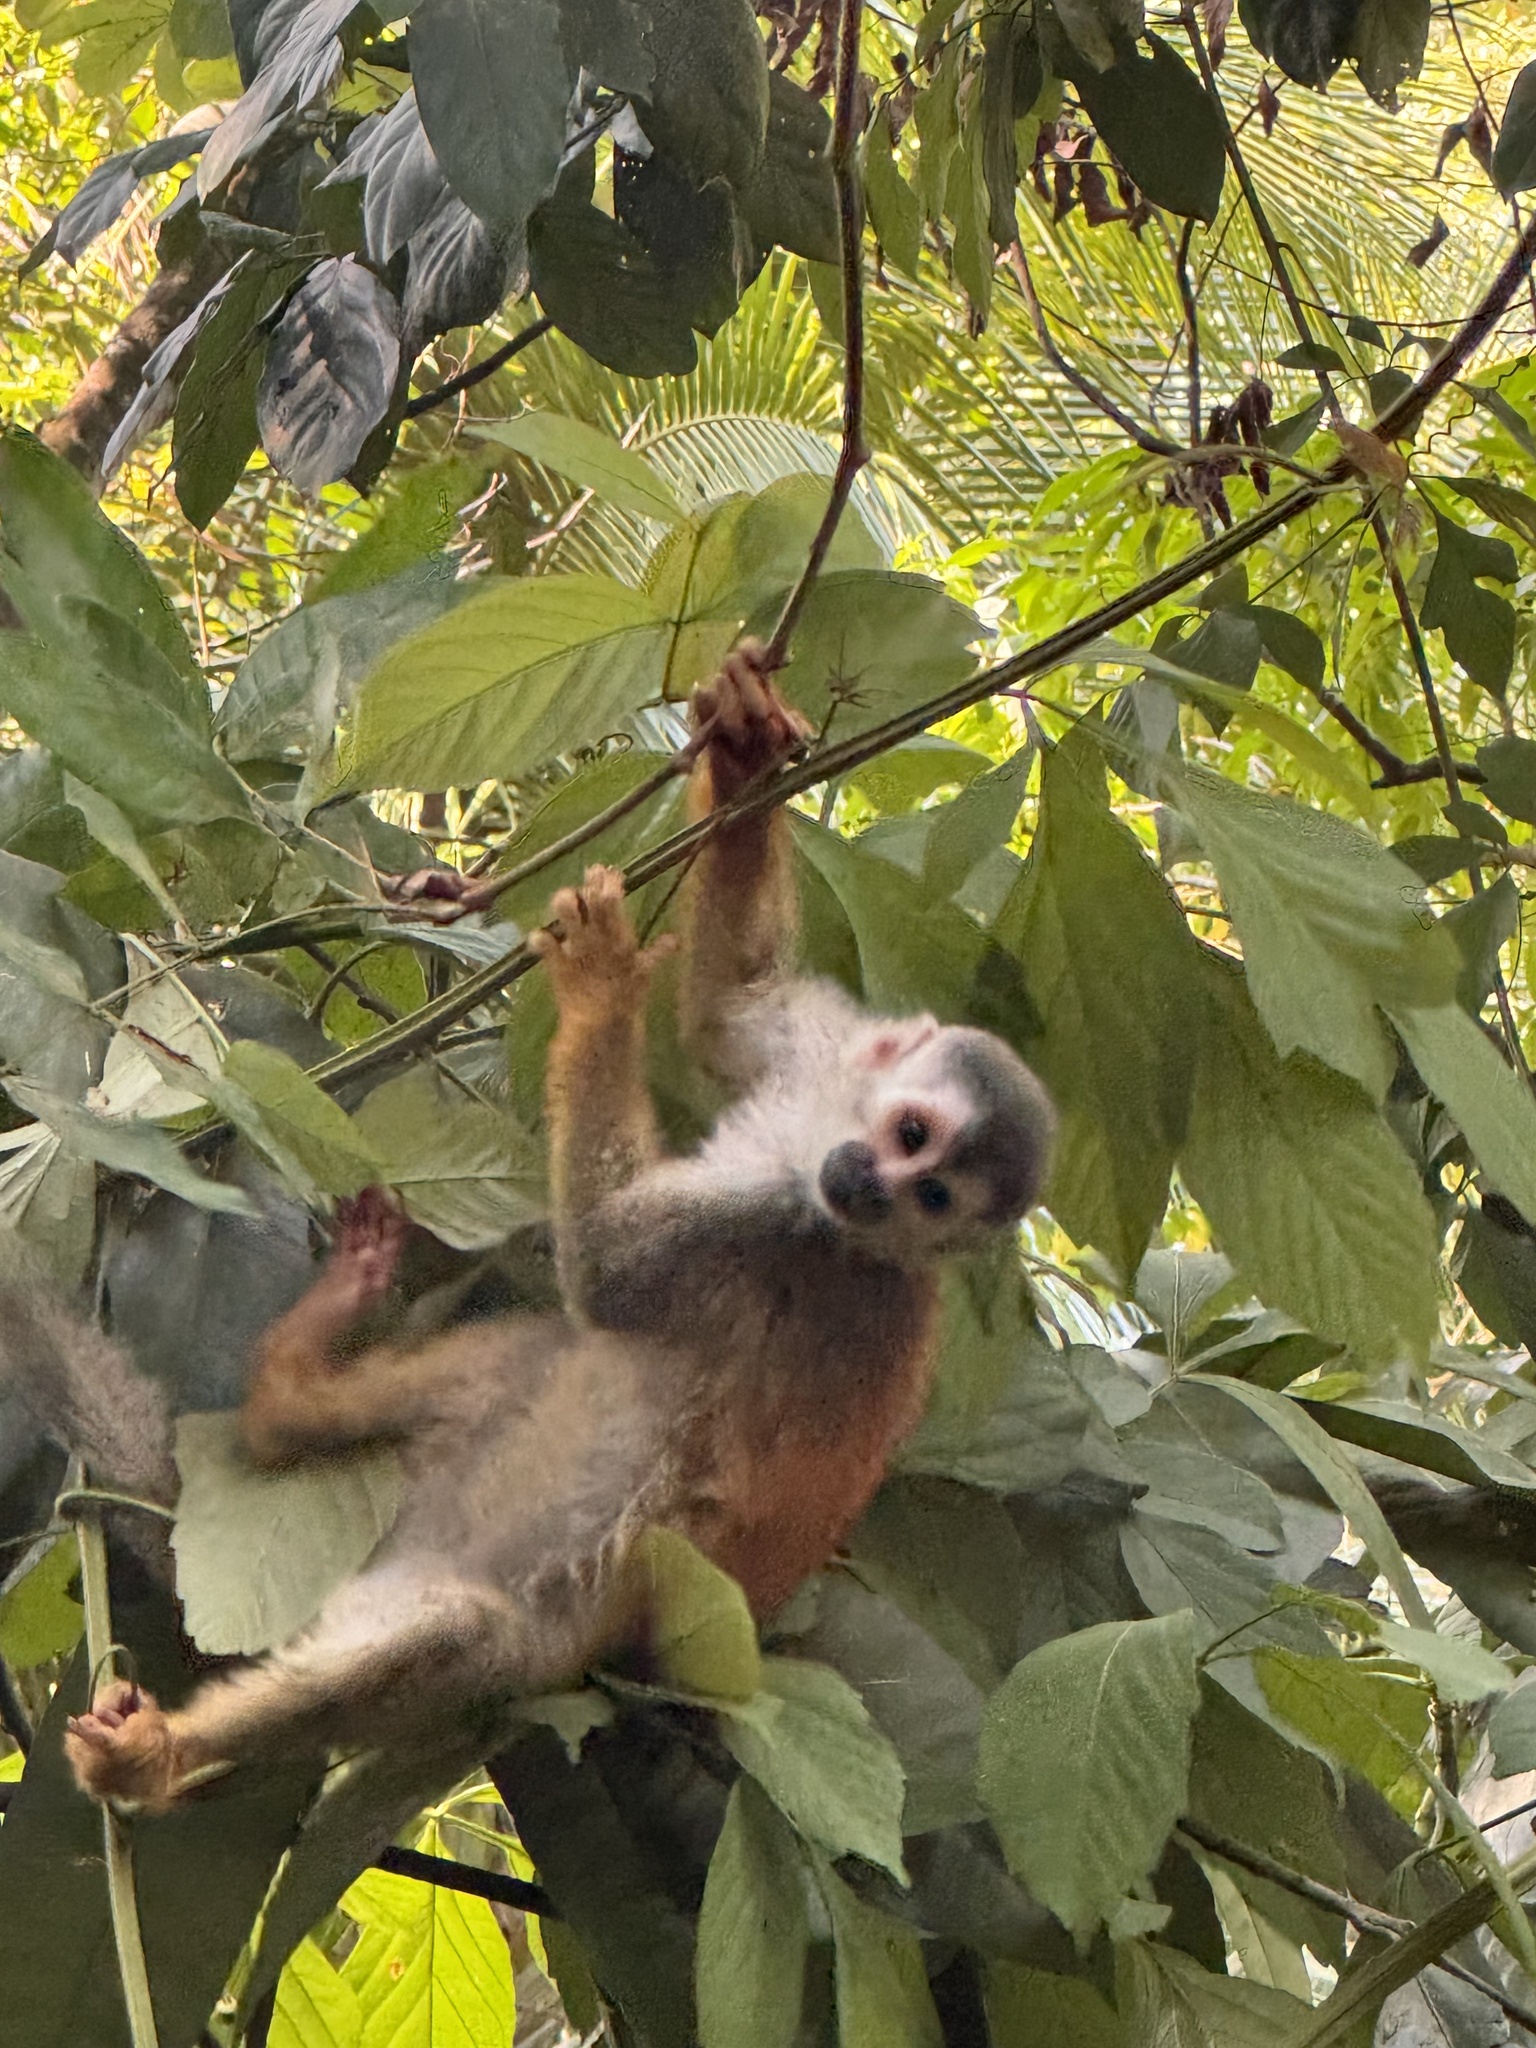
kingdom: Animalia
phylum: Chordata
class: Mammalia
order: Primates
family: Cebidae
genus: Saimiri
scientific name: Saimiri oerstedii
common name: Central american squirrel monkey
